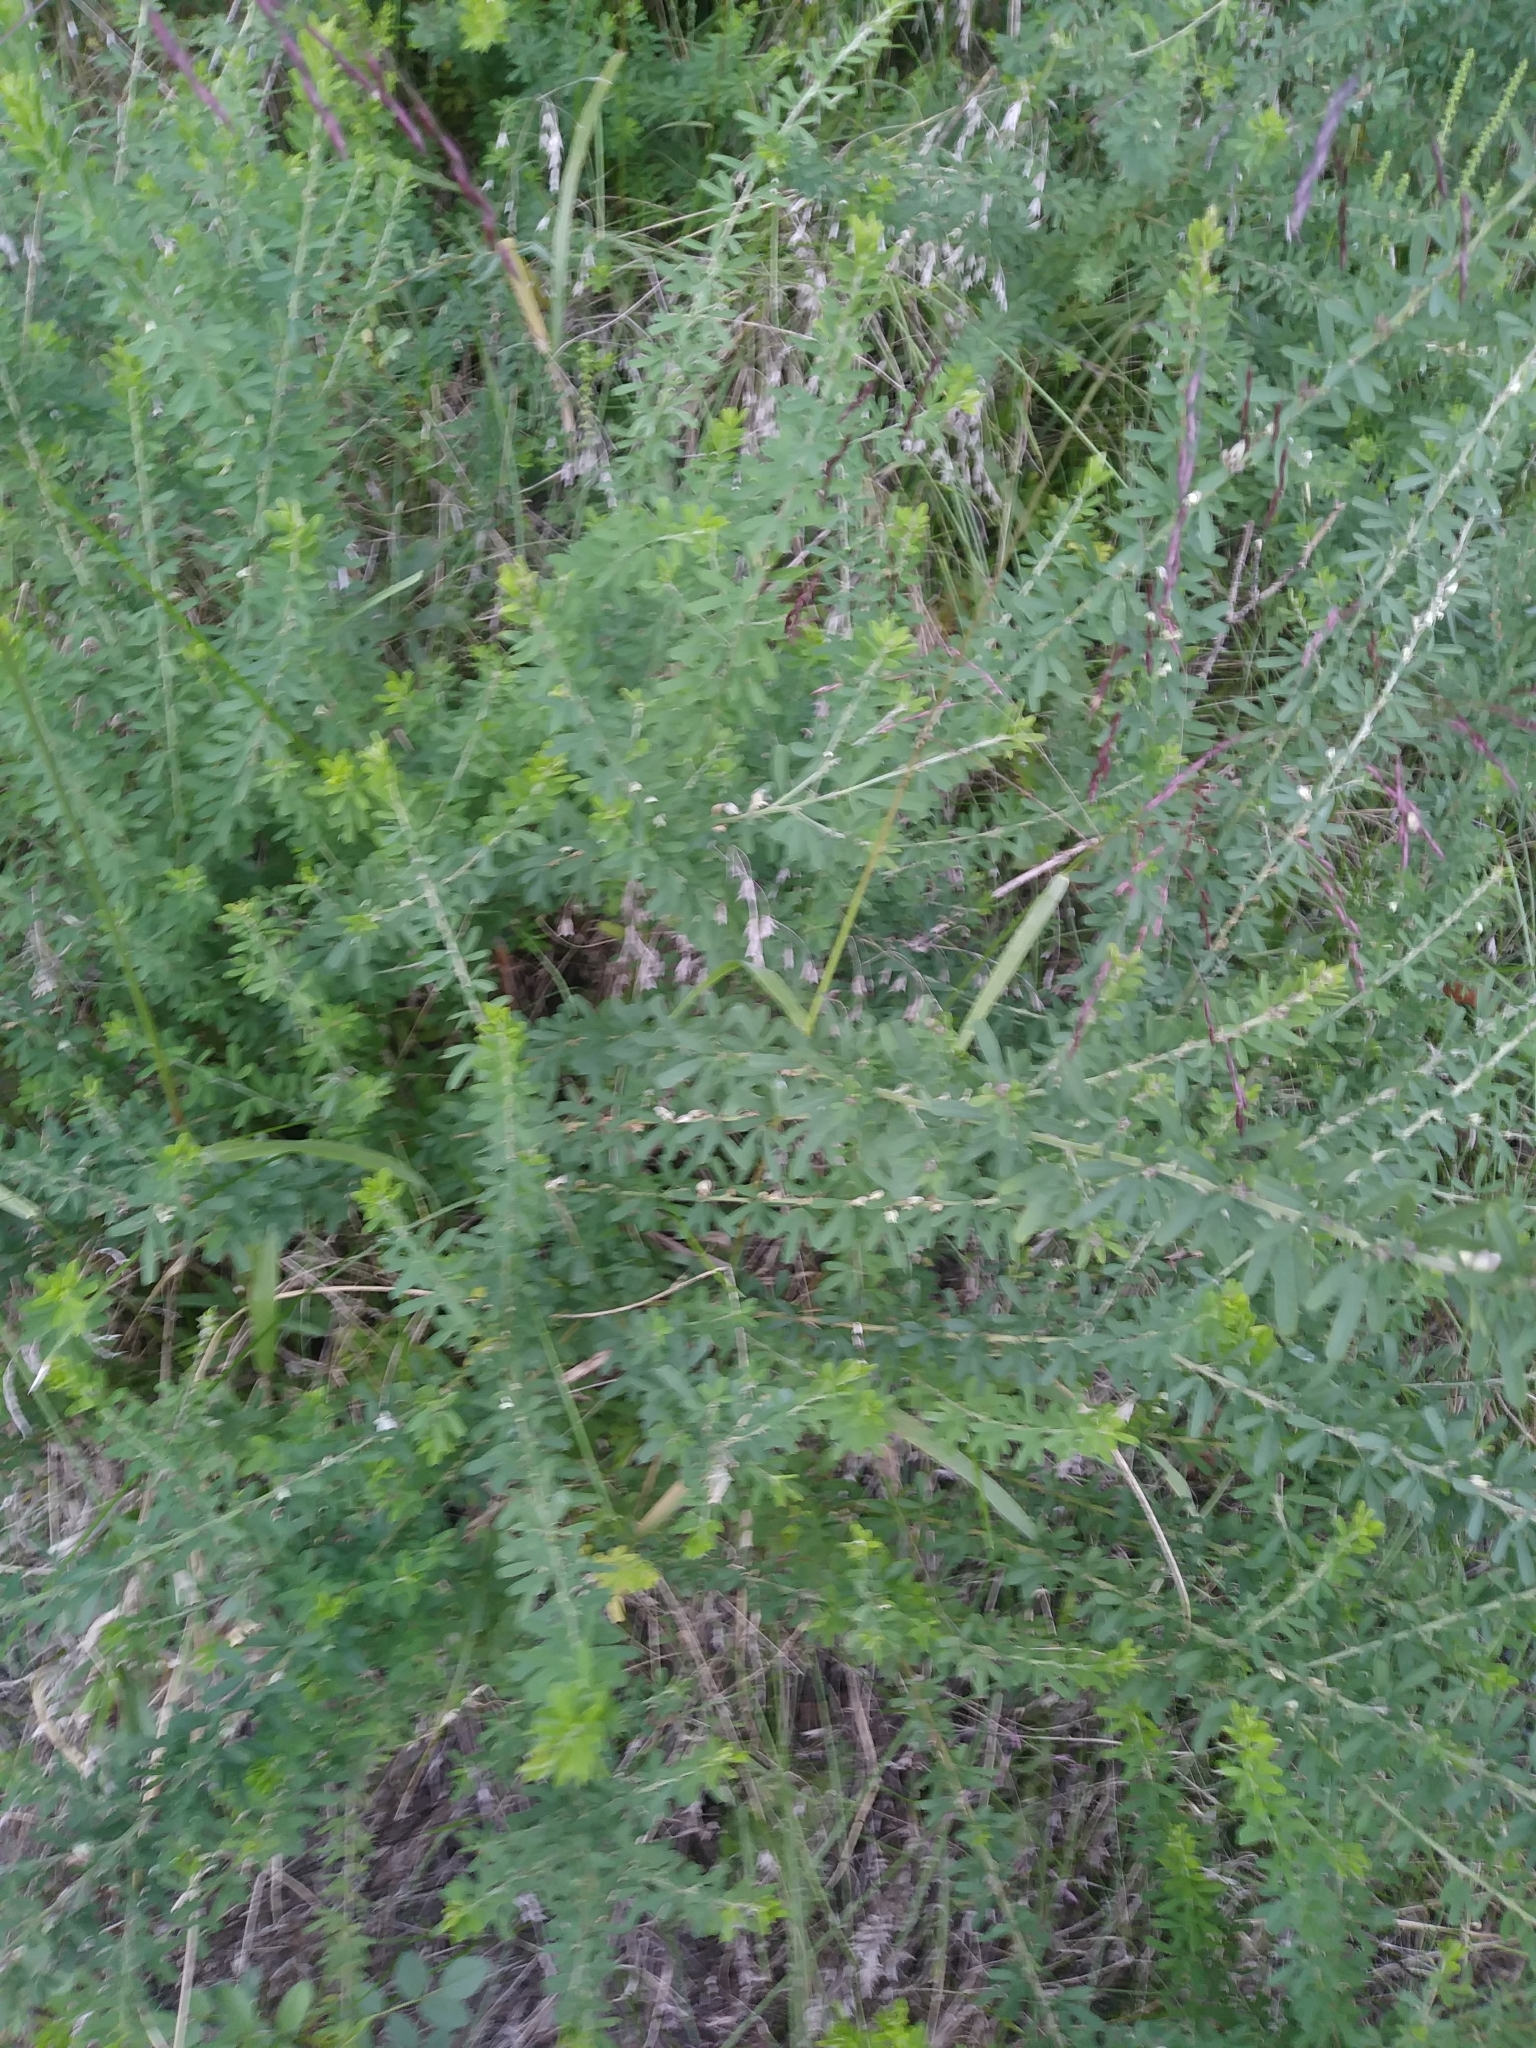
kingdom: Plantae
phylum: Tracheophyta
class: Magnoliopsida
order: Fabales
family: Fabaceae
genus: Lespedeza
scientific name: Lespedeza cuneata
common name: Chinese bush-clover
